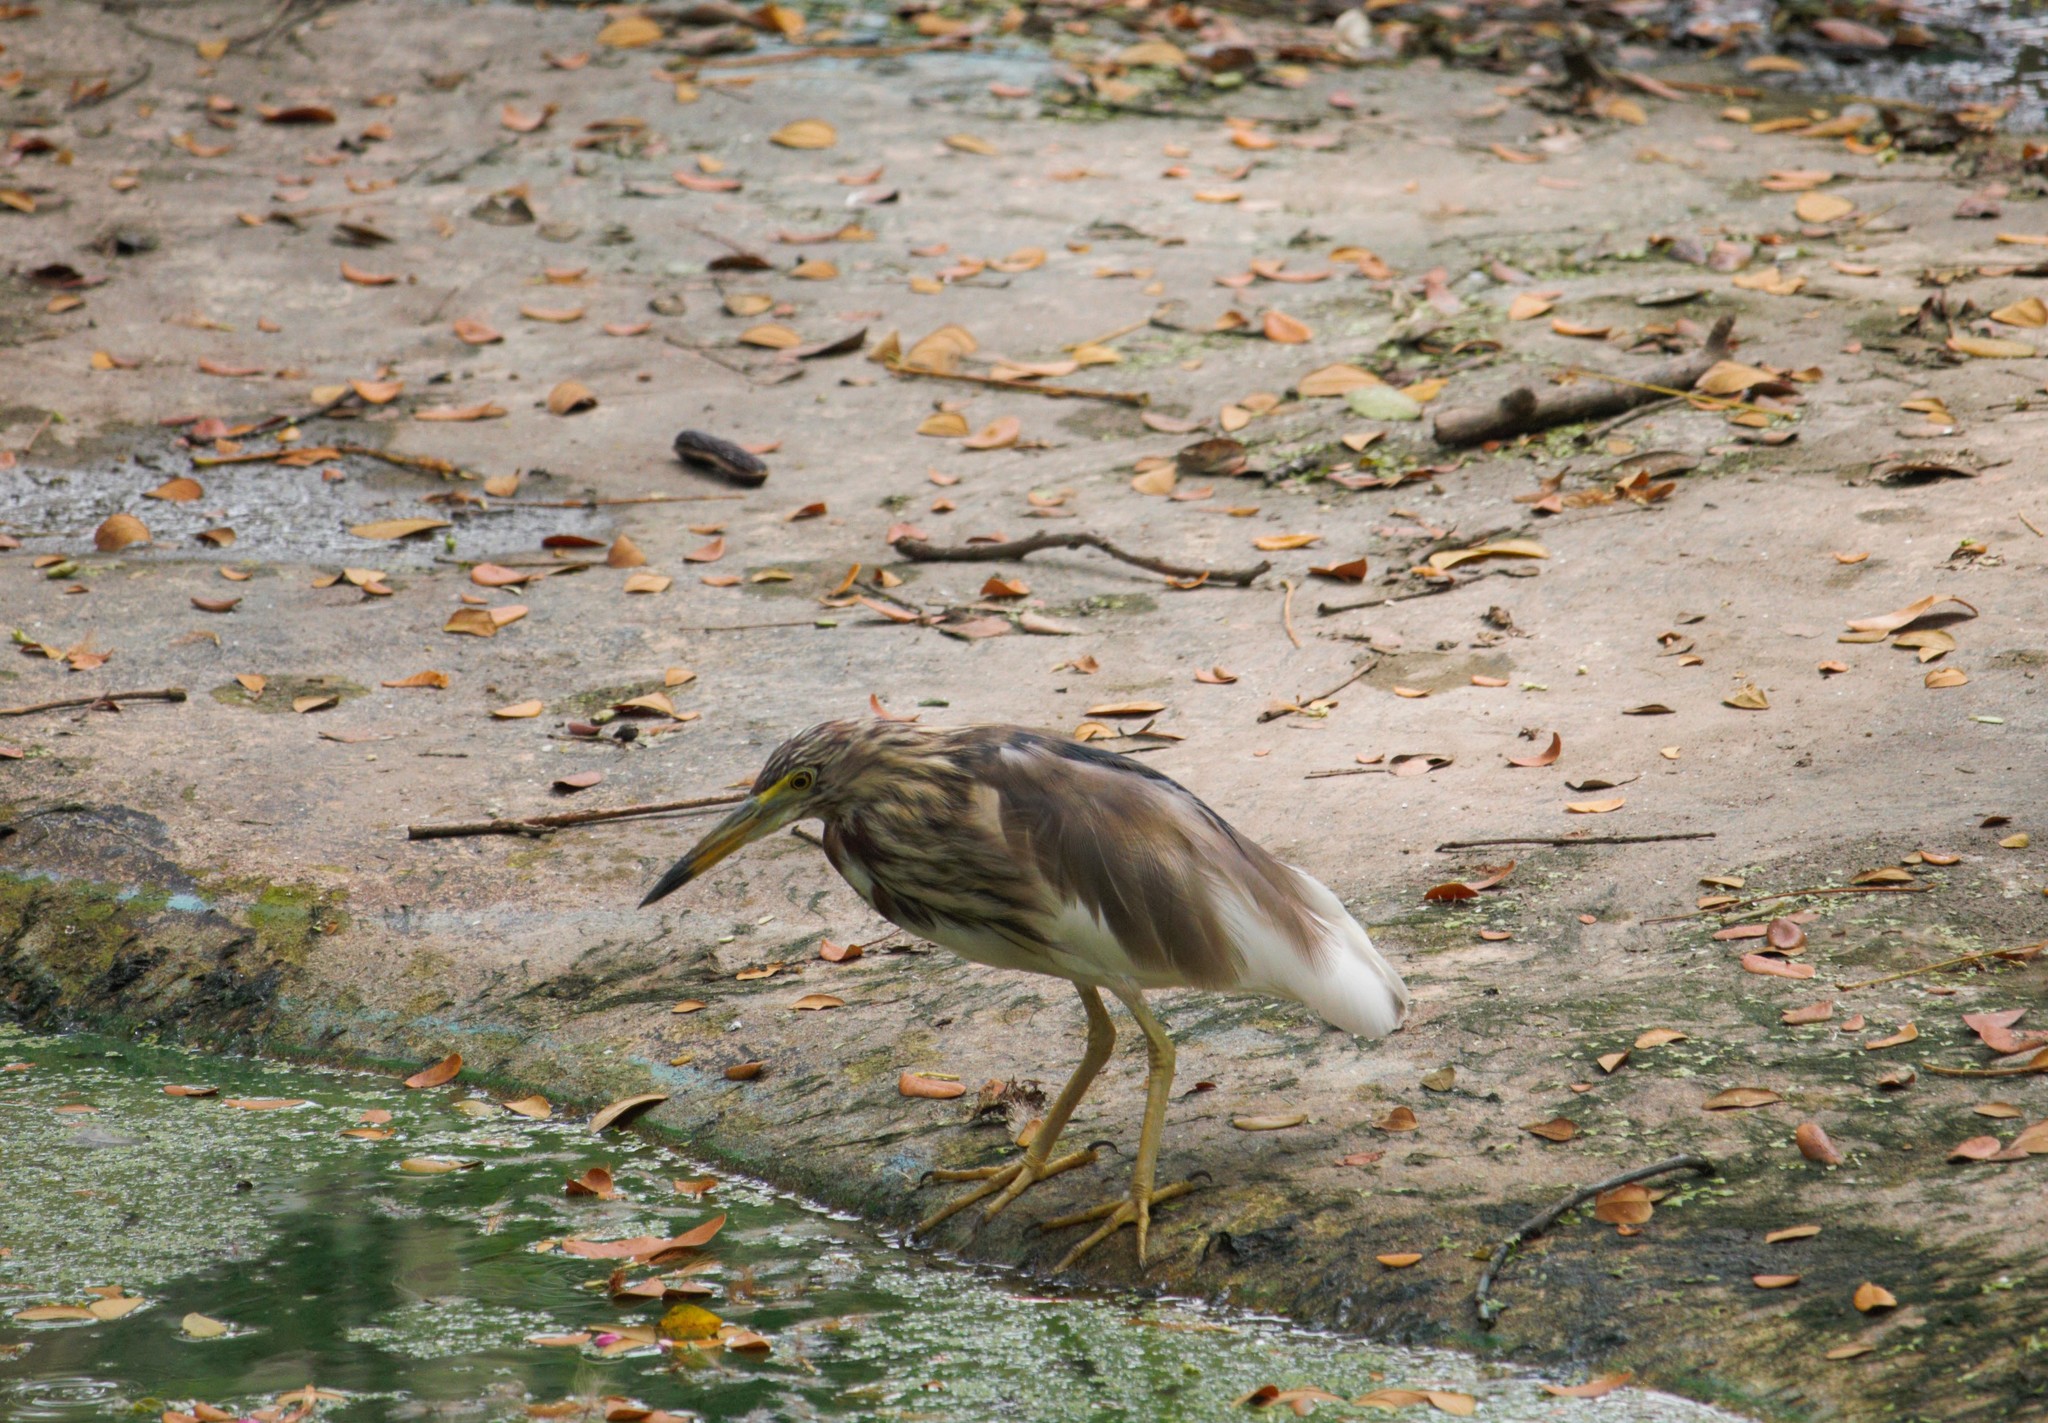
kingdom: Animalia
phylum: Chordata
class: Aves
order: Pelecaniformes
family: Ardeidae
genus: Ardeola
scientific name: Ardeola bacchus
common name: Chinese pond heron
